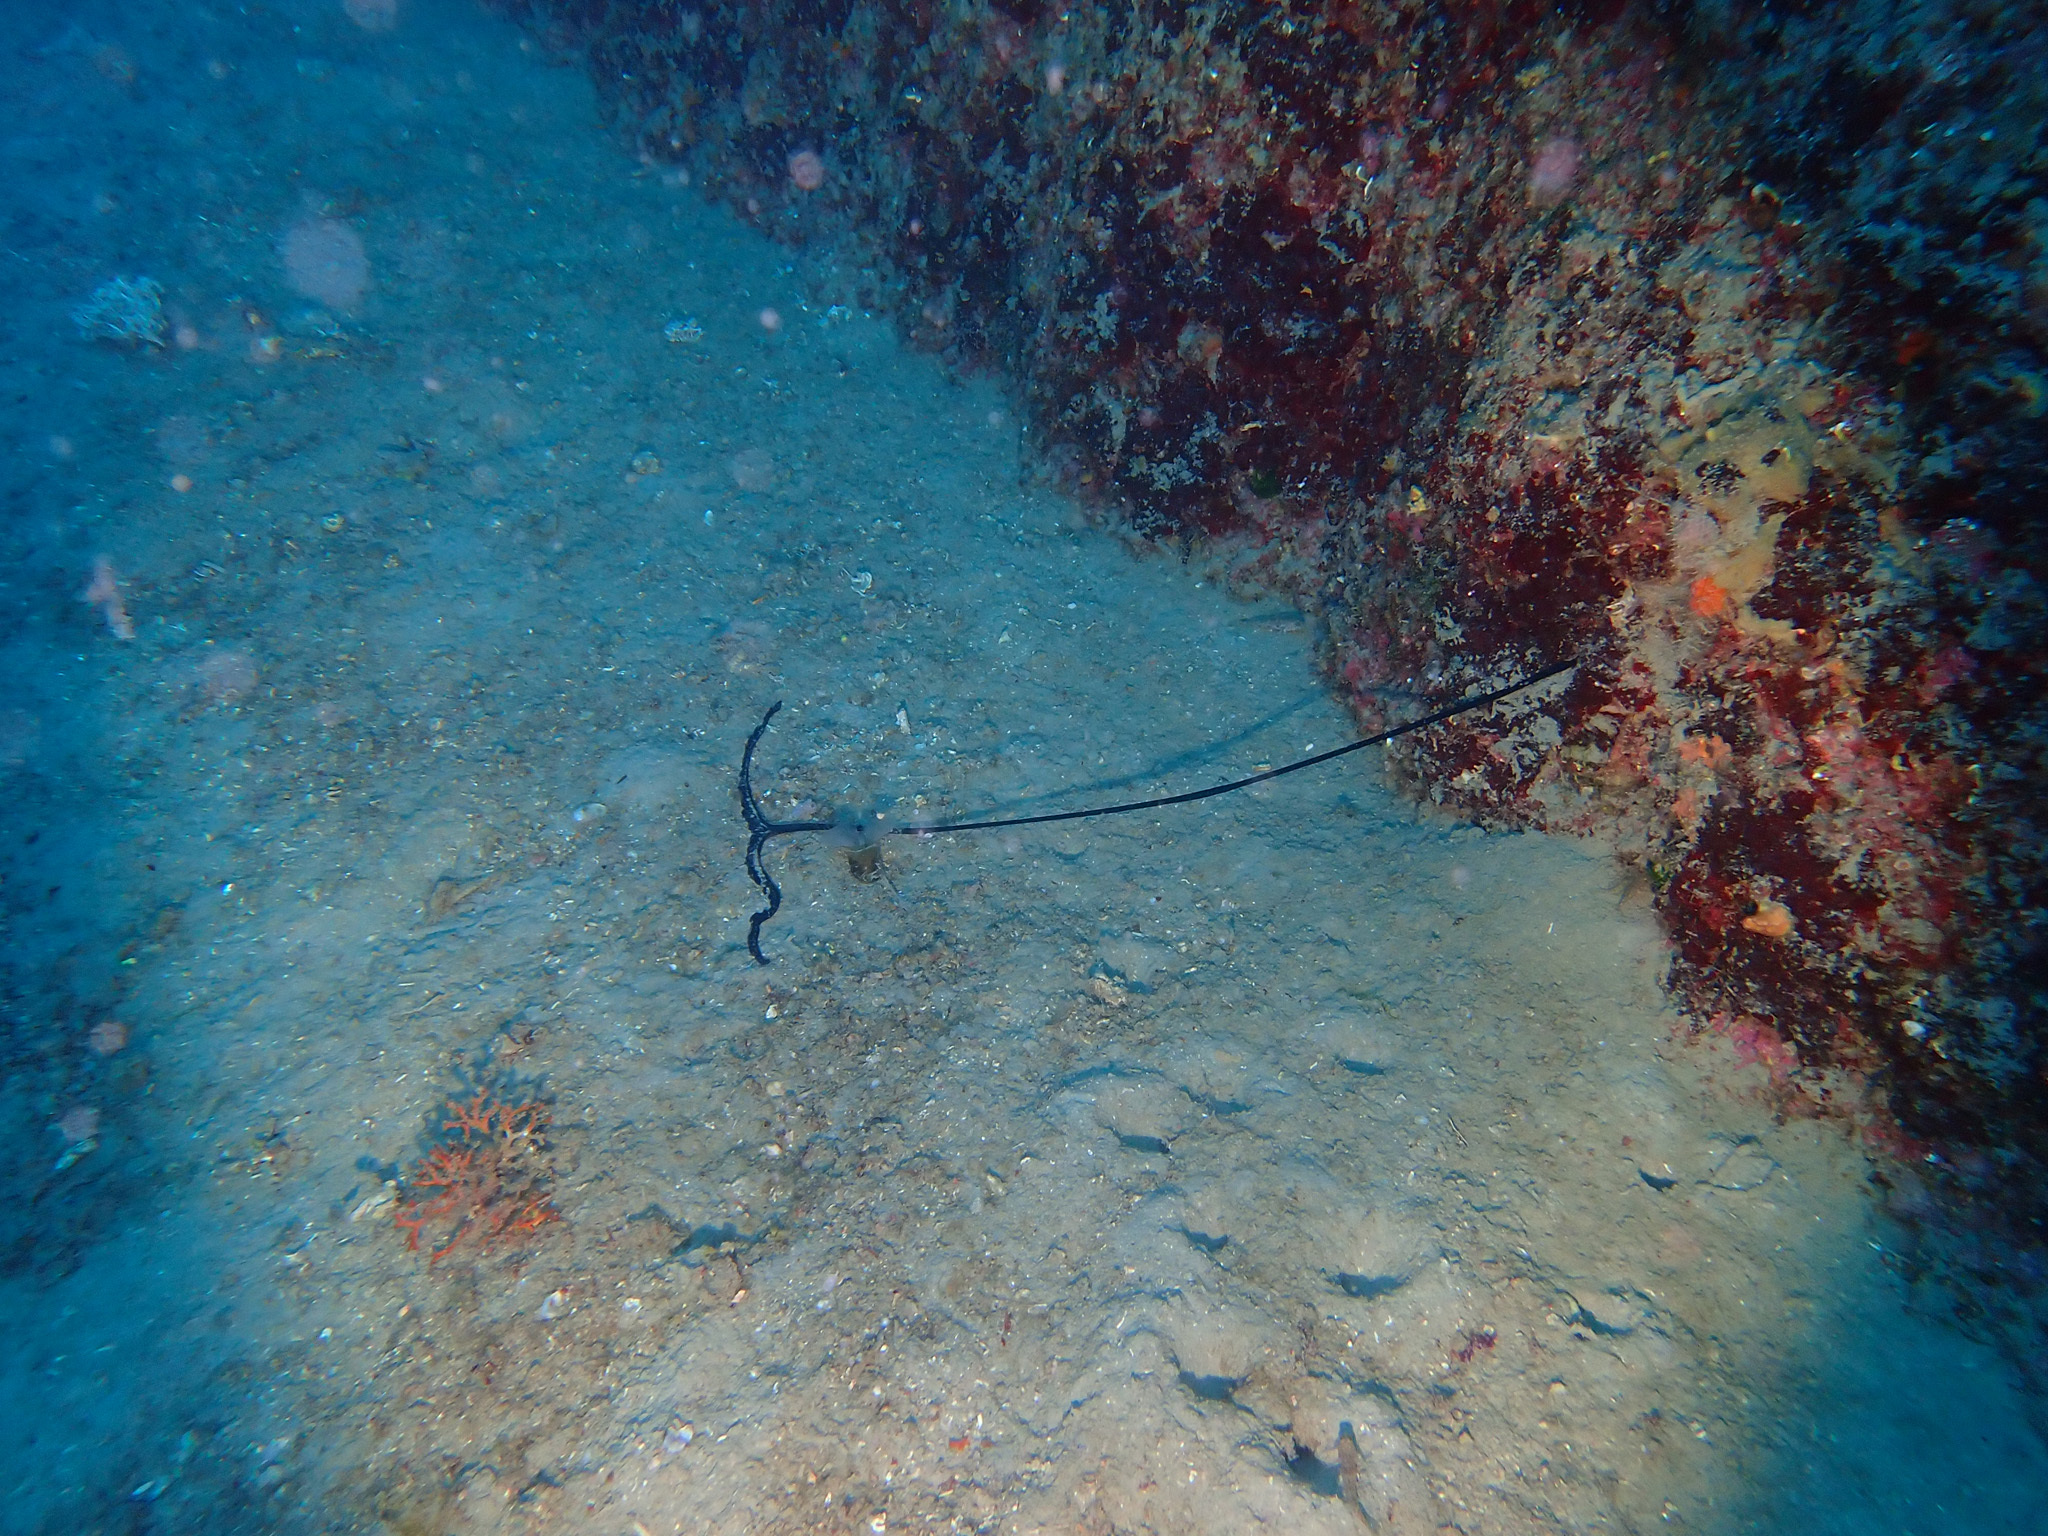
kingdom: Animalia
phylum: Annelida
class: Polychaeta
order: Echiuroidea
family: Bonelliidae
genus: Bonellia
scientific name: Bonellia viridis
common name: Green spoon worm
